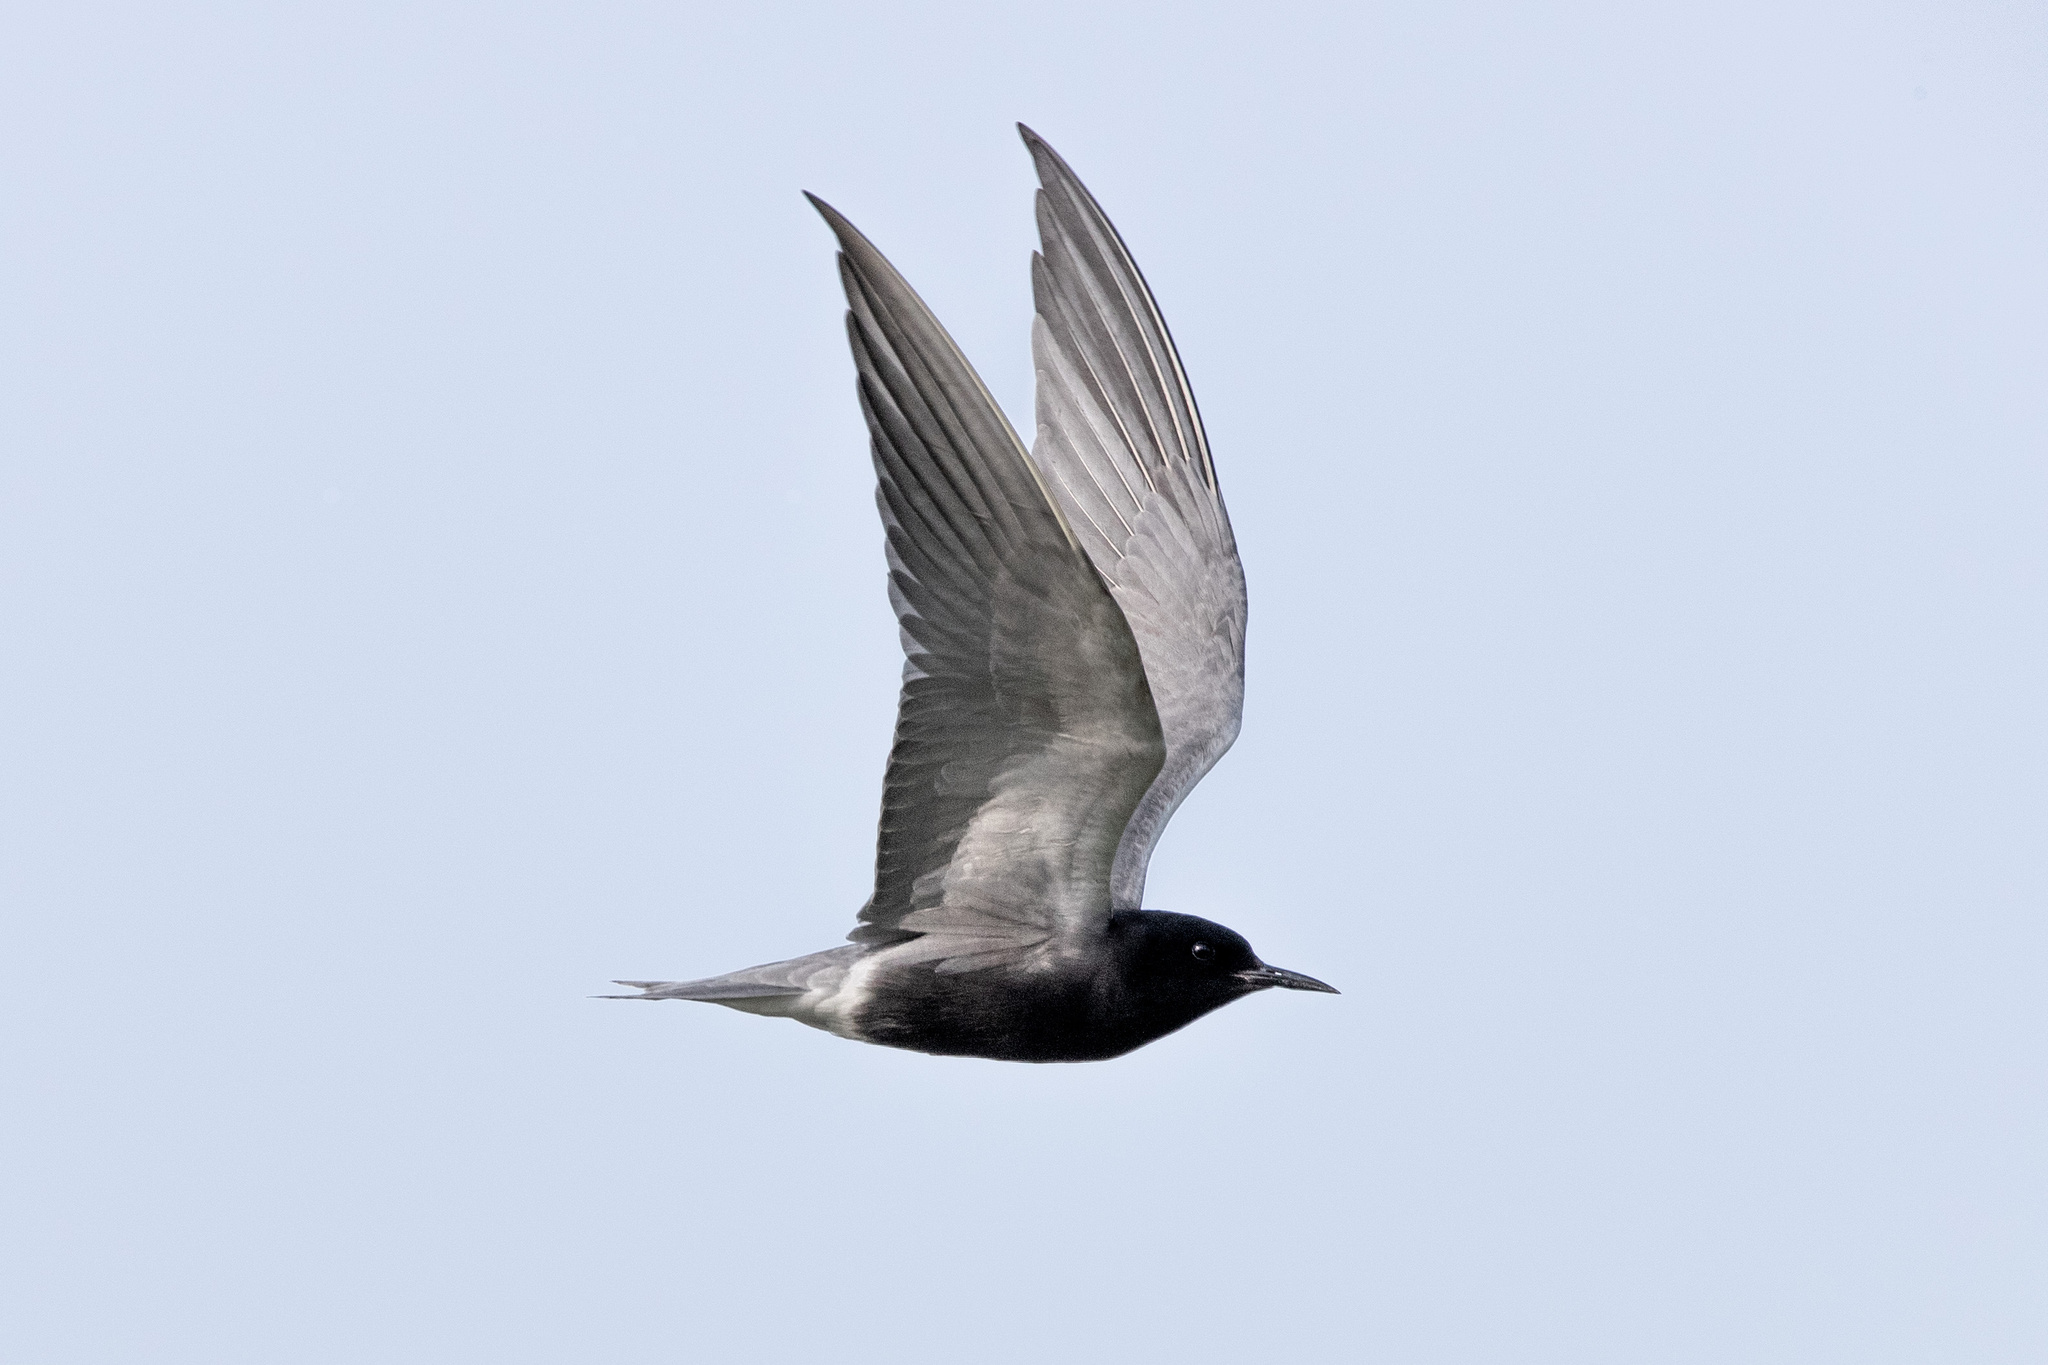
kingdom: Animalia
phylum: Chordata
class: Aves
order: Charadriiformes
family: Laridae
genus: Chlidonias
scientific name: Chlidonias niger
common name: Black tern
